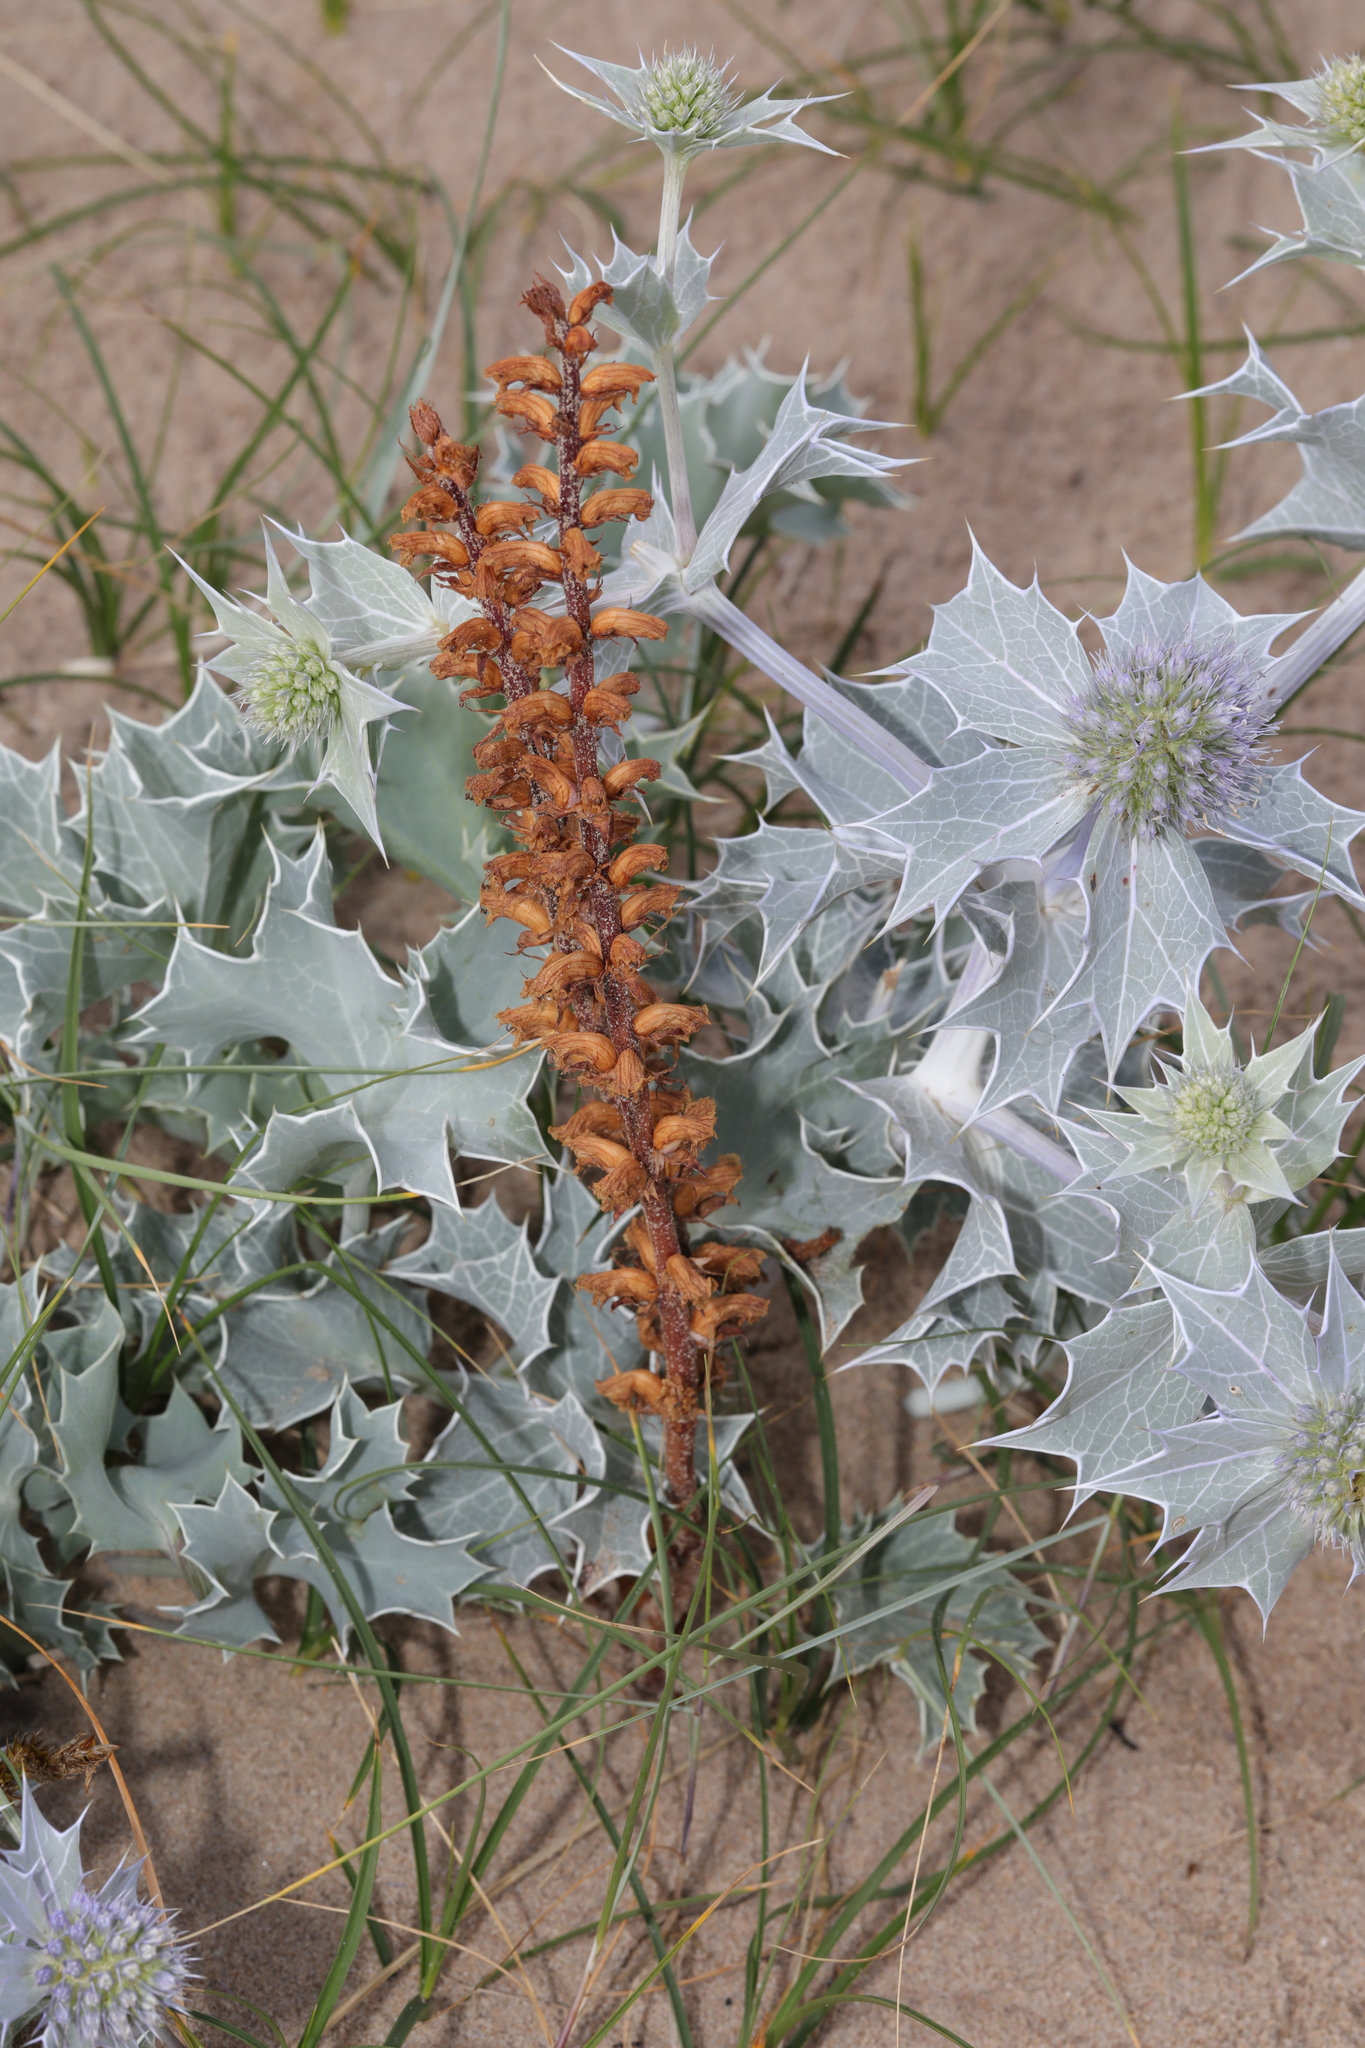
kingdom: Plantae
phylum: Tracheophyta
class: Magnoliopsida
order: Lamiales
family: Orobanchaceae
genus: Orobanche
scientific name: Orobanche minor
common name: Common broomrape
